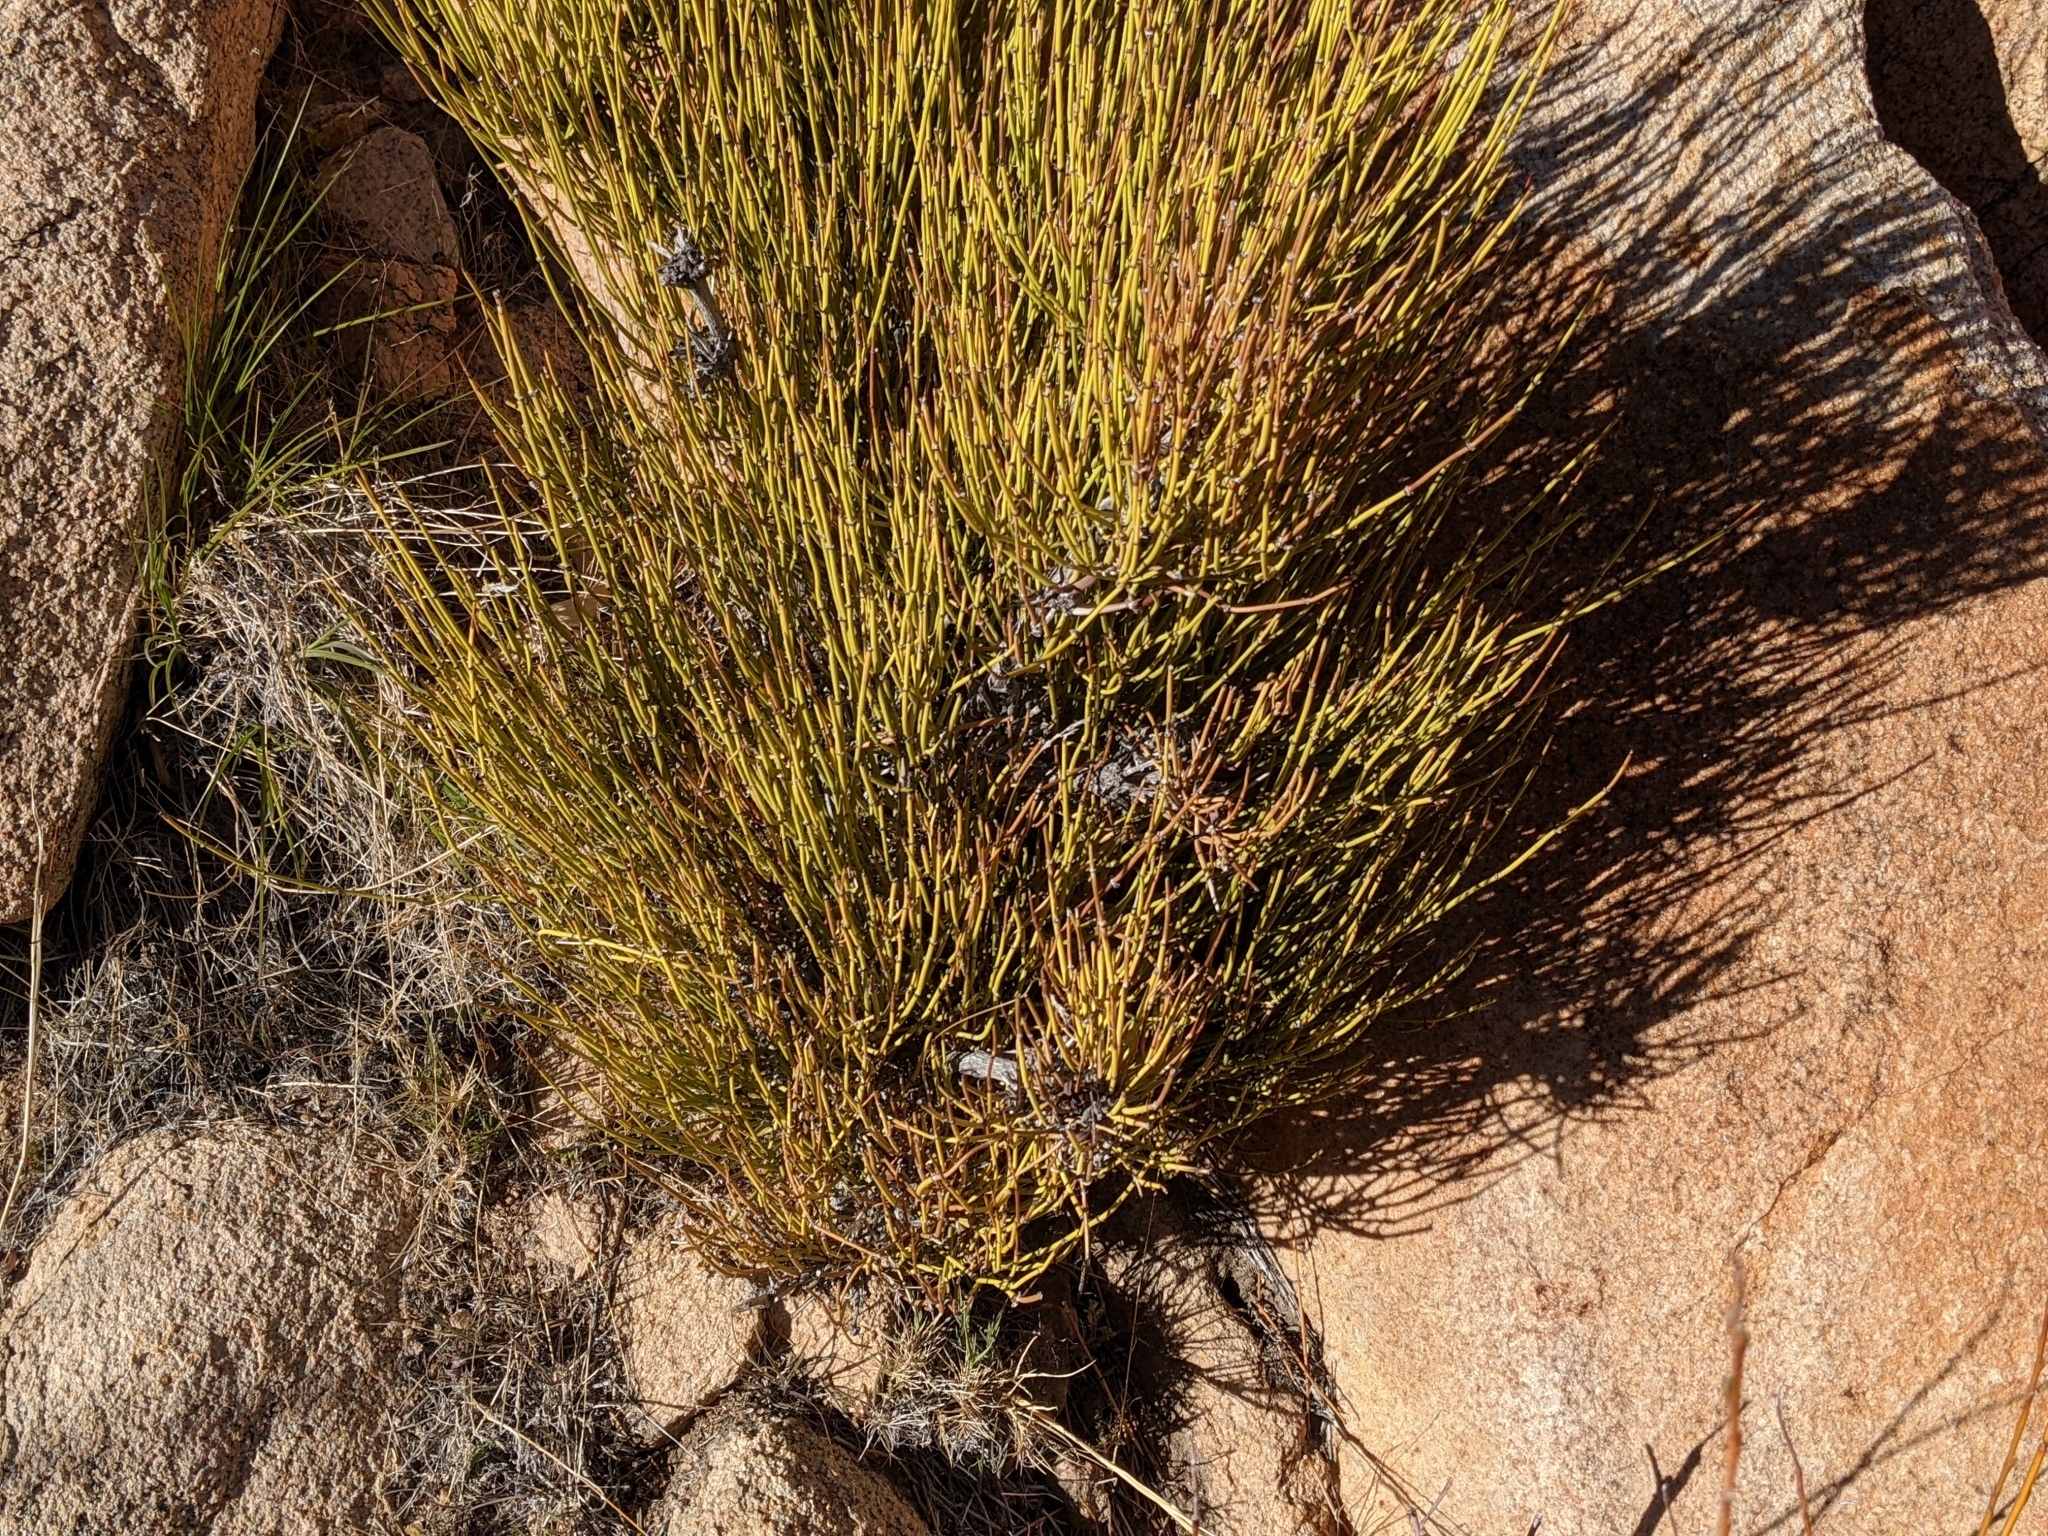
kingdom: Plantae
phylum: Tracheophyta
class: Gnetopsida
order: Ephedrales
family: Ephedraceae
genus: Ephedra
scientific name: Ephedra viridis
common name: Green ephedra
